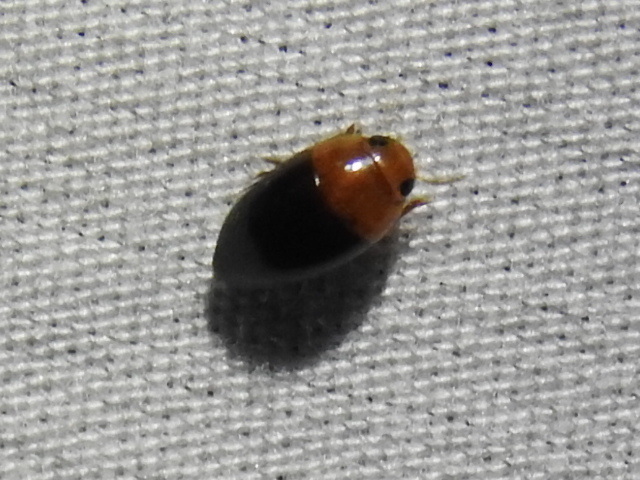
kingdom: Animalia
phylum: Arthropoda
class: Insecta
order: Coleoptera
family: Noteridae
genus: Hydrocanthus
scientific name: Hydrocanthus atripennis
